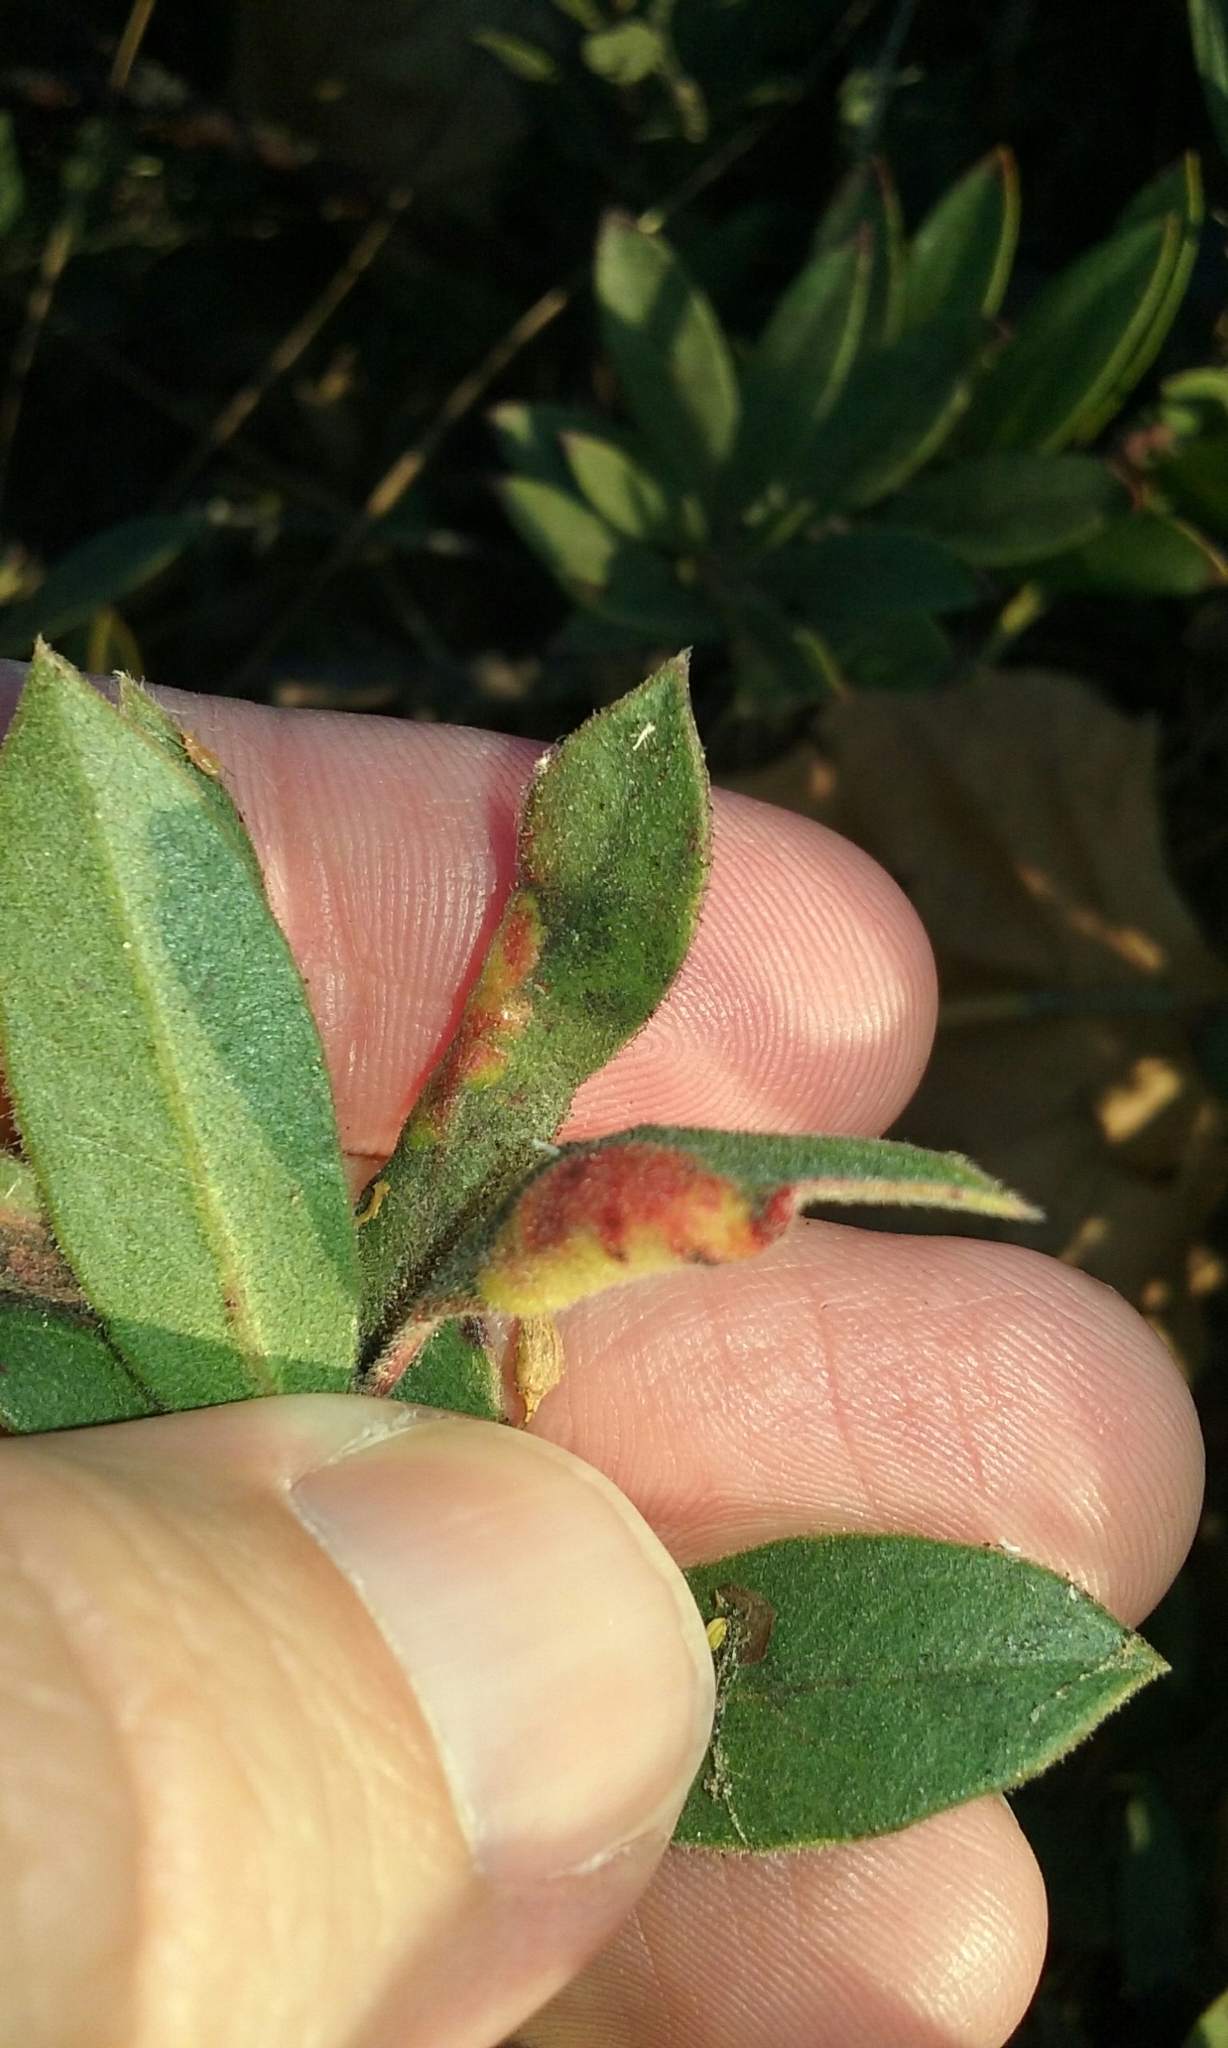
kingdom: Animalia
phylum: Arthropoda
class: Insecta
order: Hemiptera
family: Aphididae
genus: Tamalia
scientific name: Tamalia coweni
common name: Manzanita leafgall aphid
